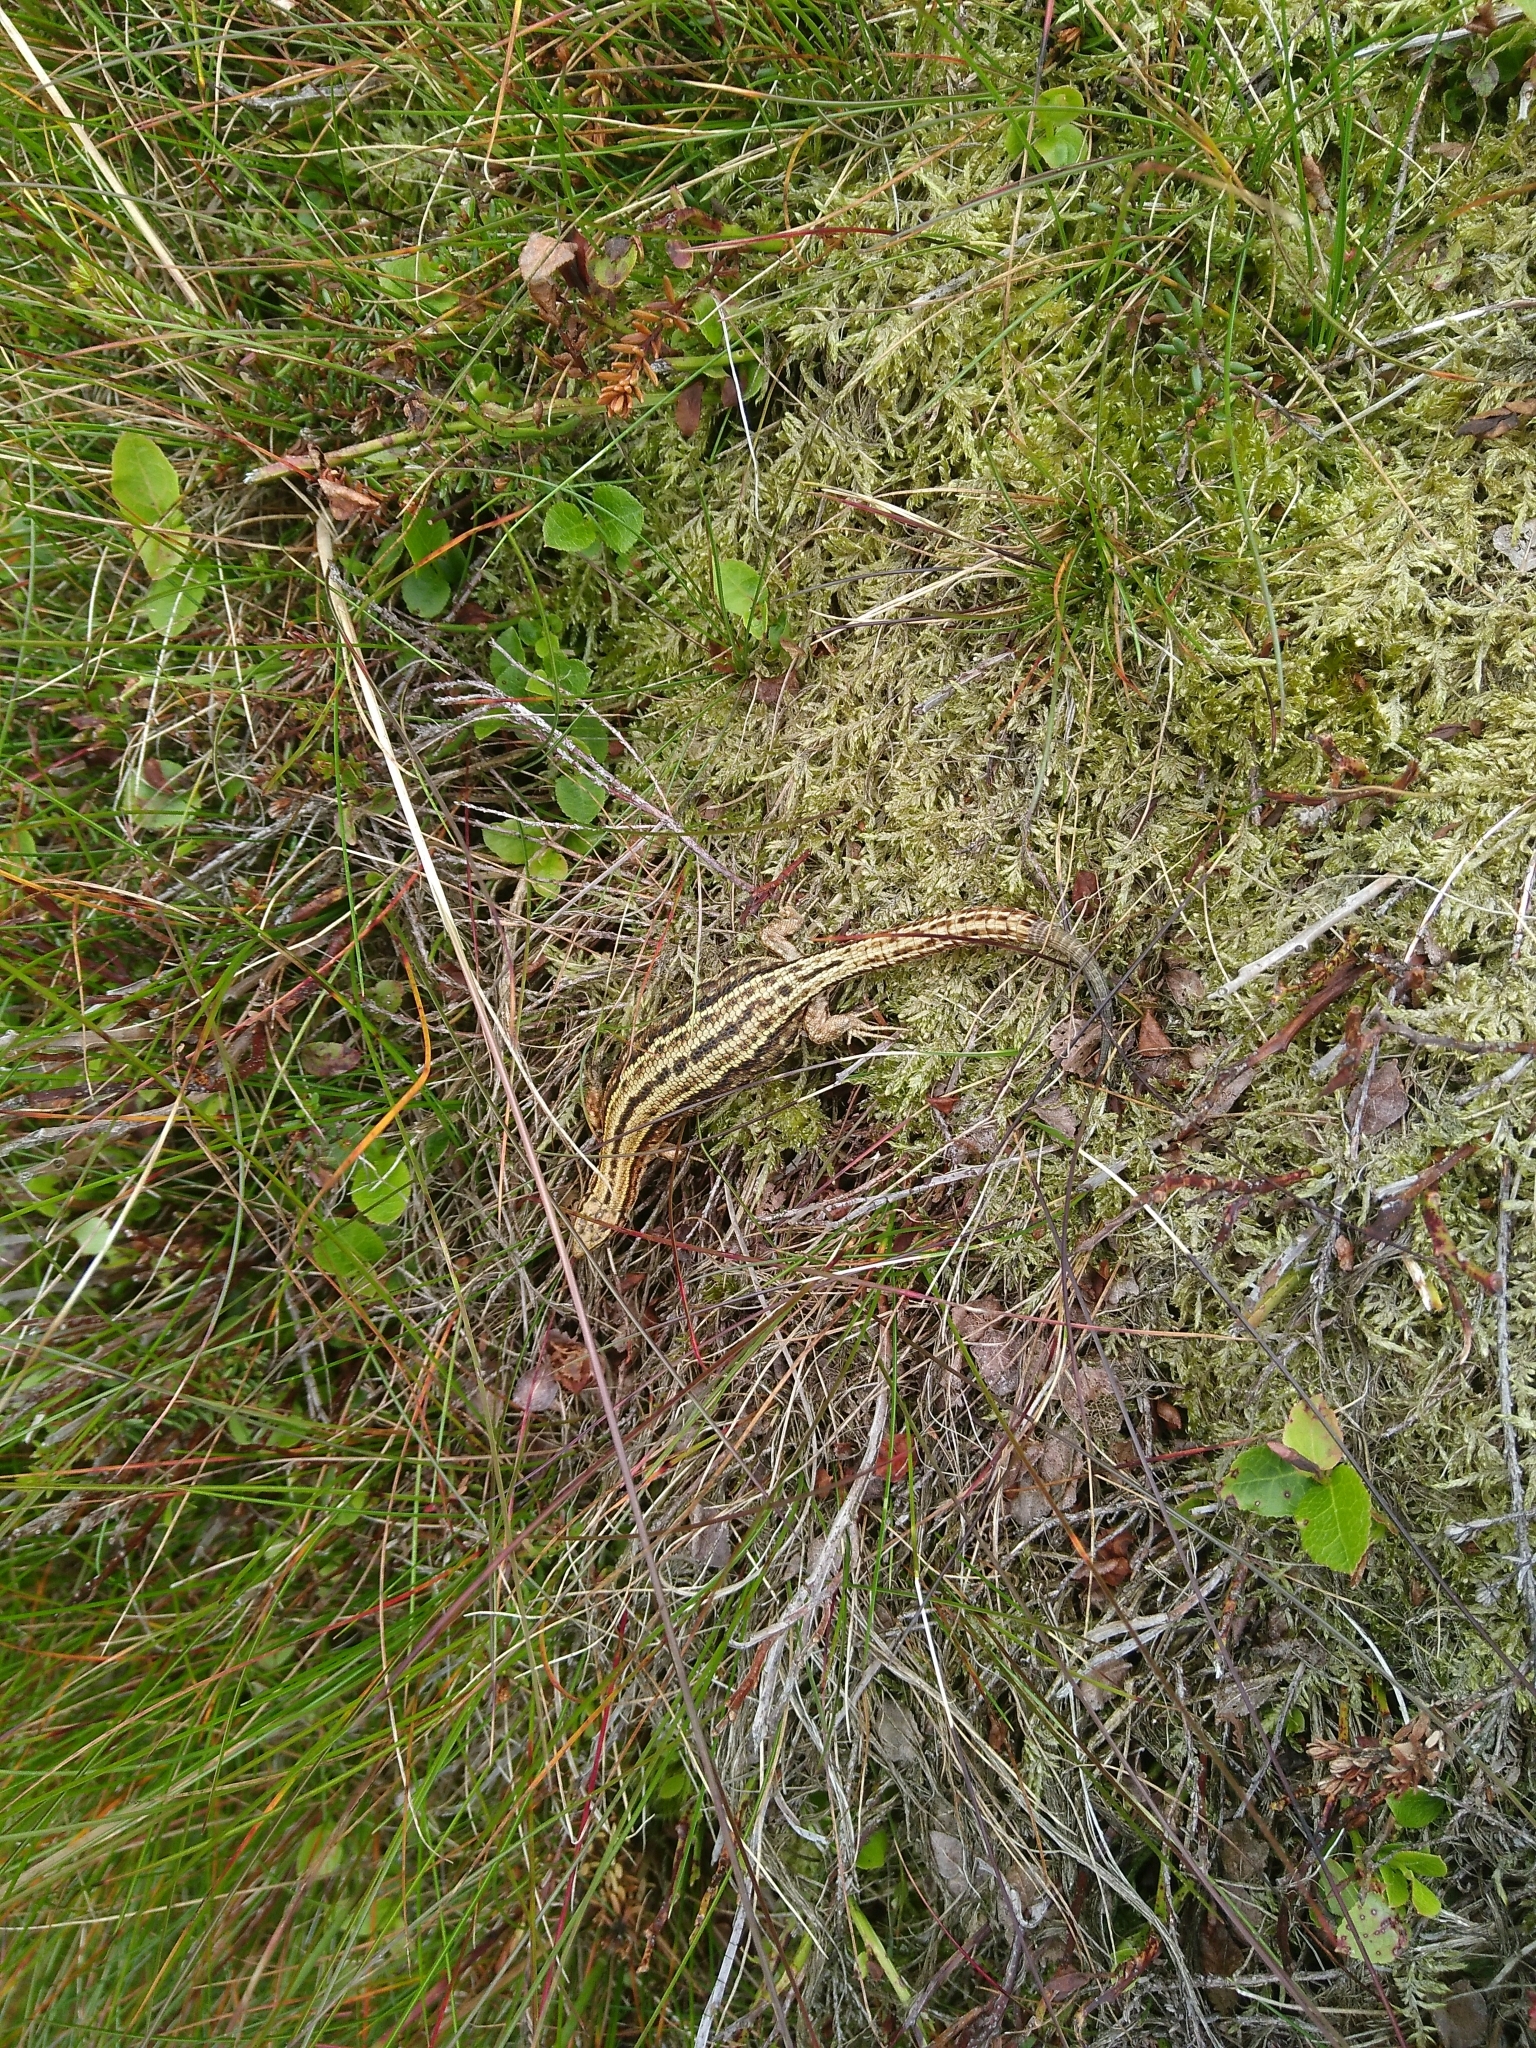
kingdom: Animalia
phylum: Chordata
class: Squamata
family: Lacertidae
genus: Zootoca
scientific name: Zootoca vivipara
